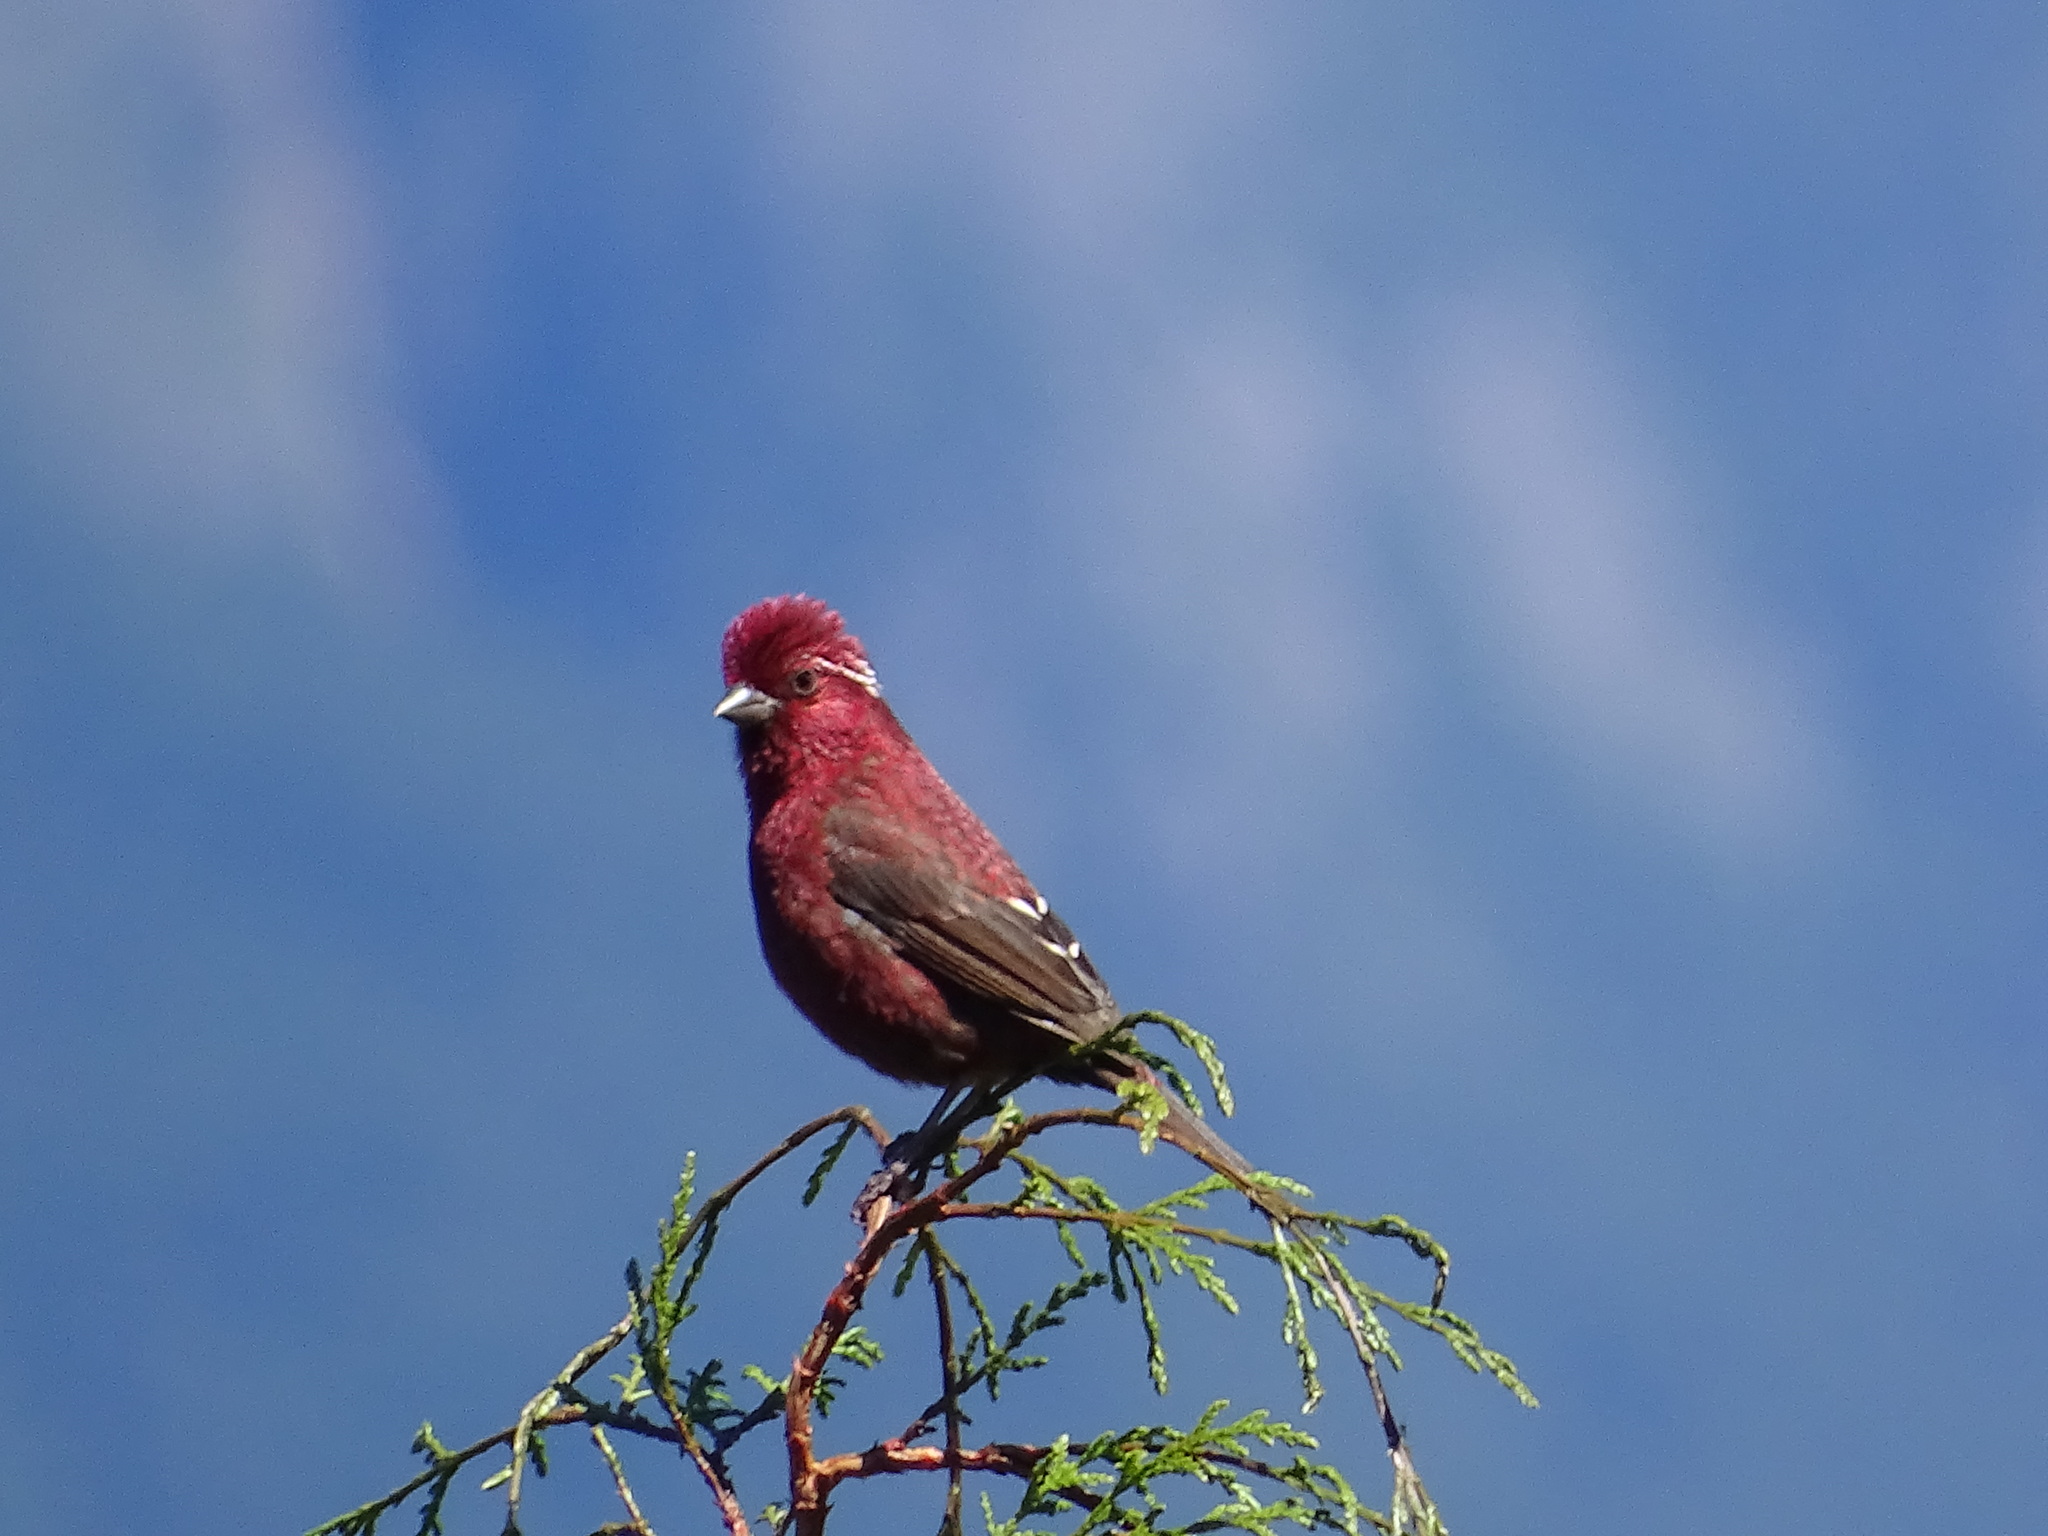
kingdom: Animalia
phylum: Chordata
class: Aves
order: Passeriformes
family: Fringillidae
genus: Carpodacus
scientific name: Carpodacus formosanus
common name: Taiwan rosefinch
